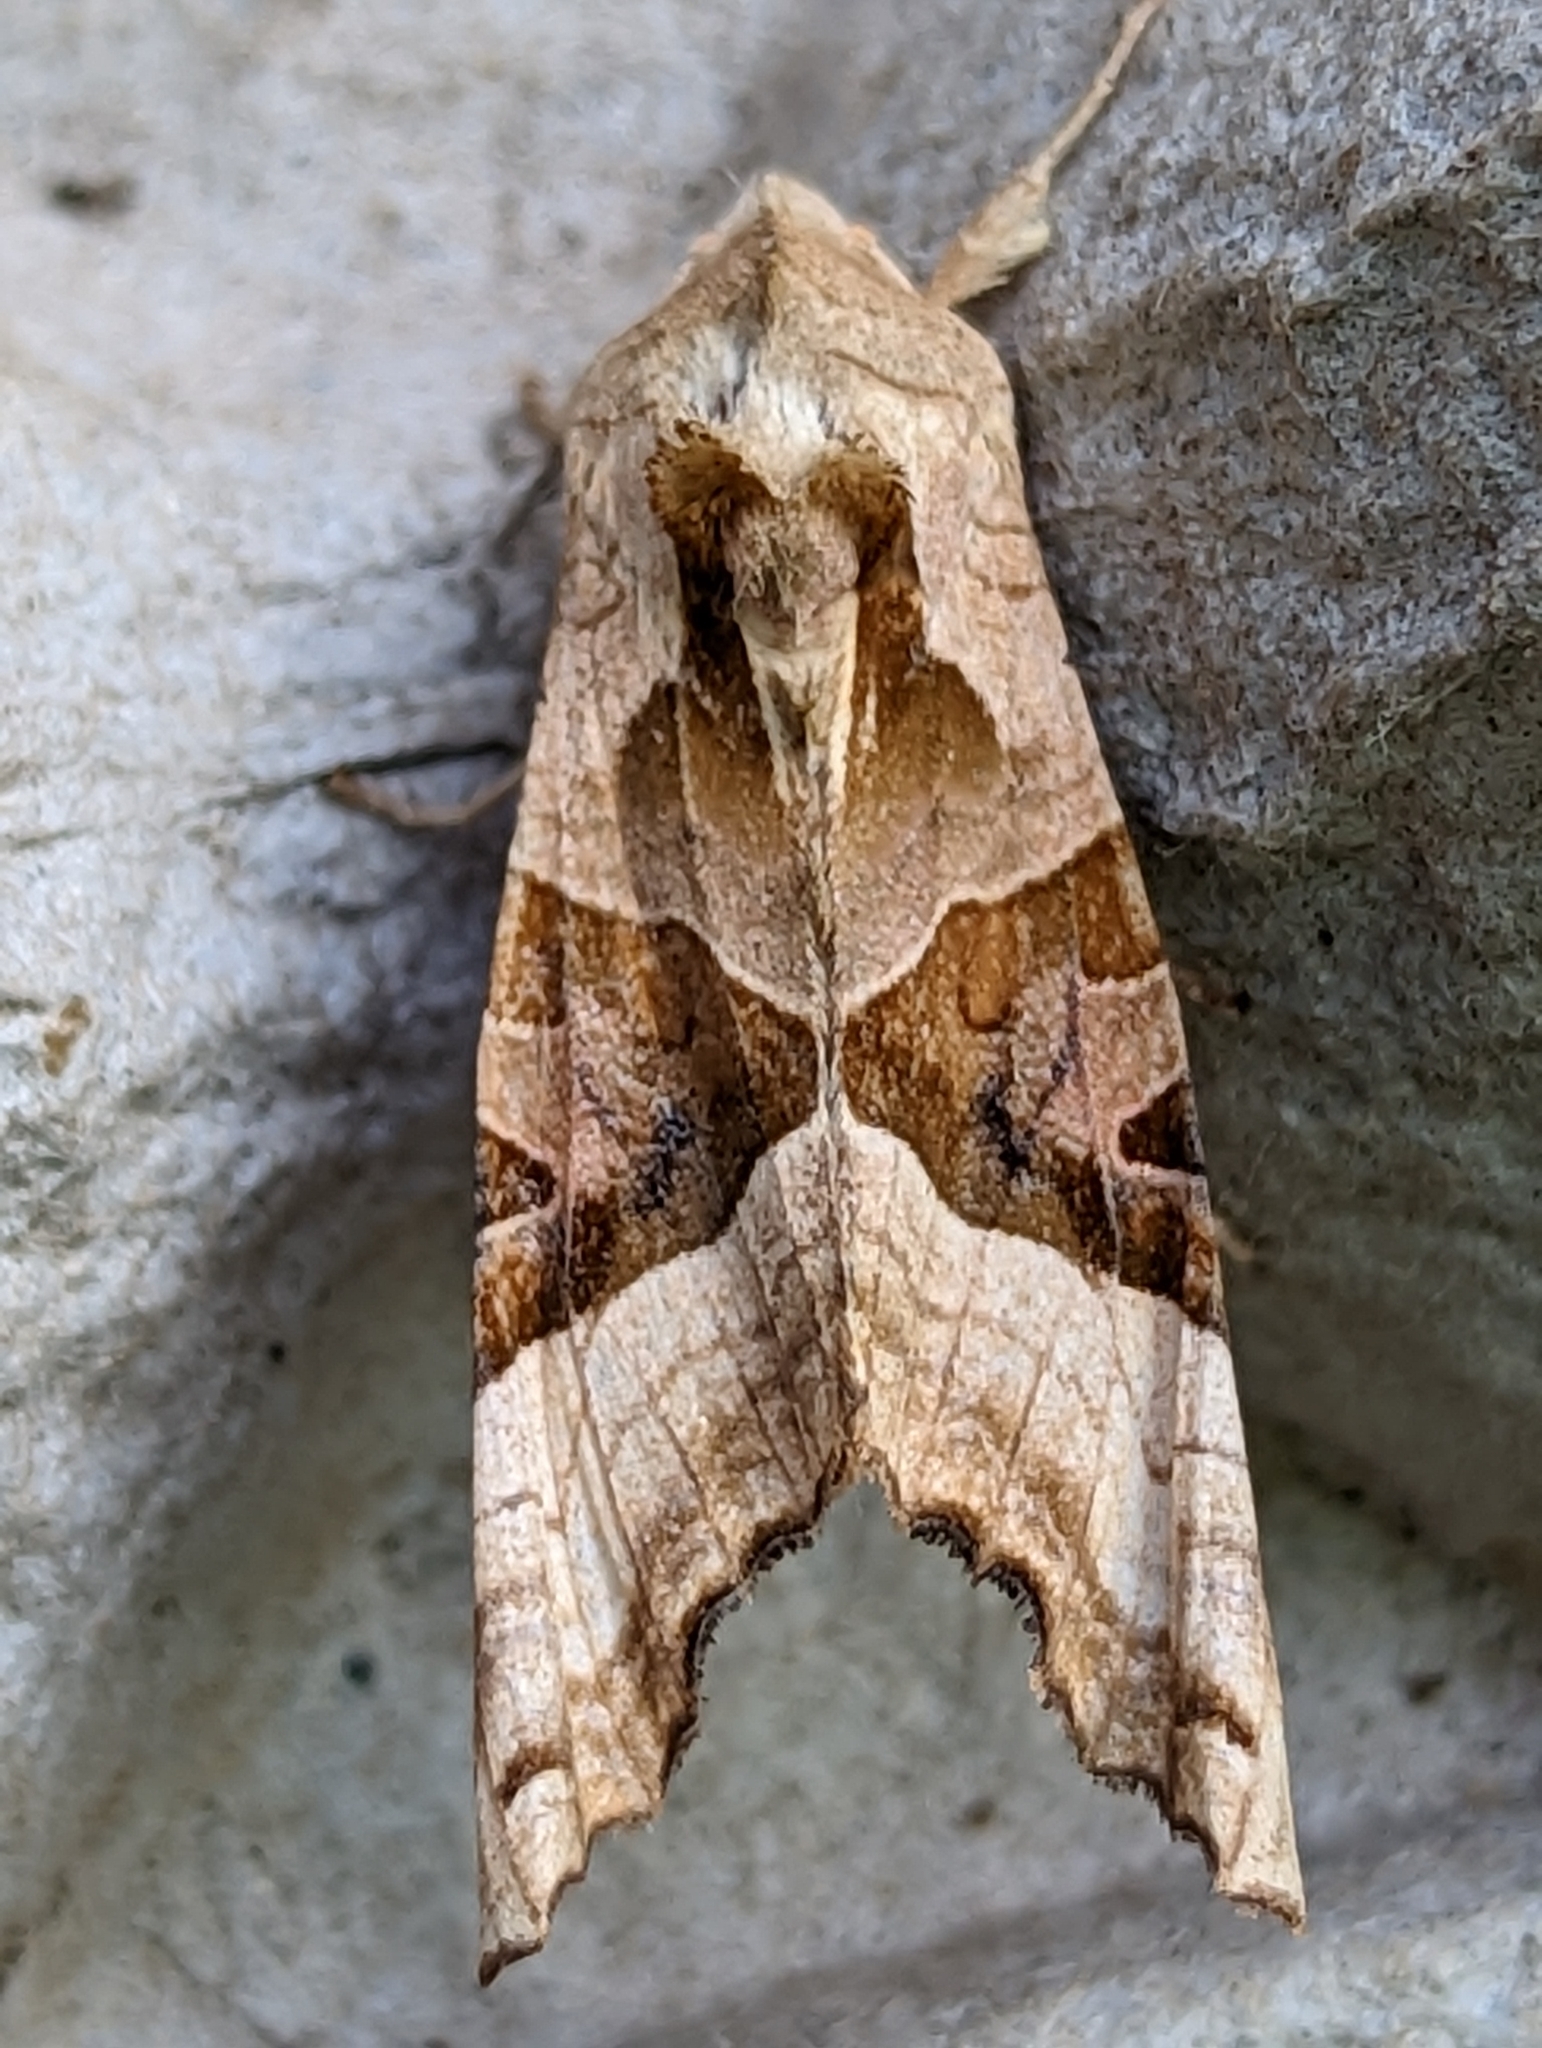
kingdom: Animalia
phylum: Arthropoda
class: Insecta
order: Lepidoptera
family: Noctuidae
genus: Phlogophora
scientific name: Phlogophora meticulosa
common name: Angle shades
